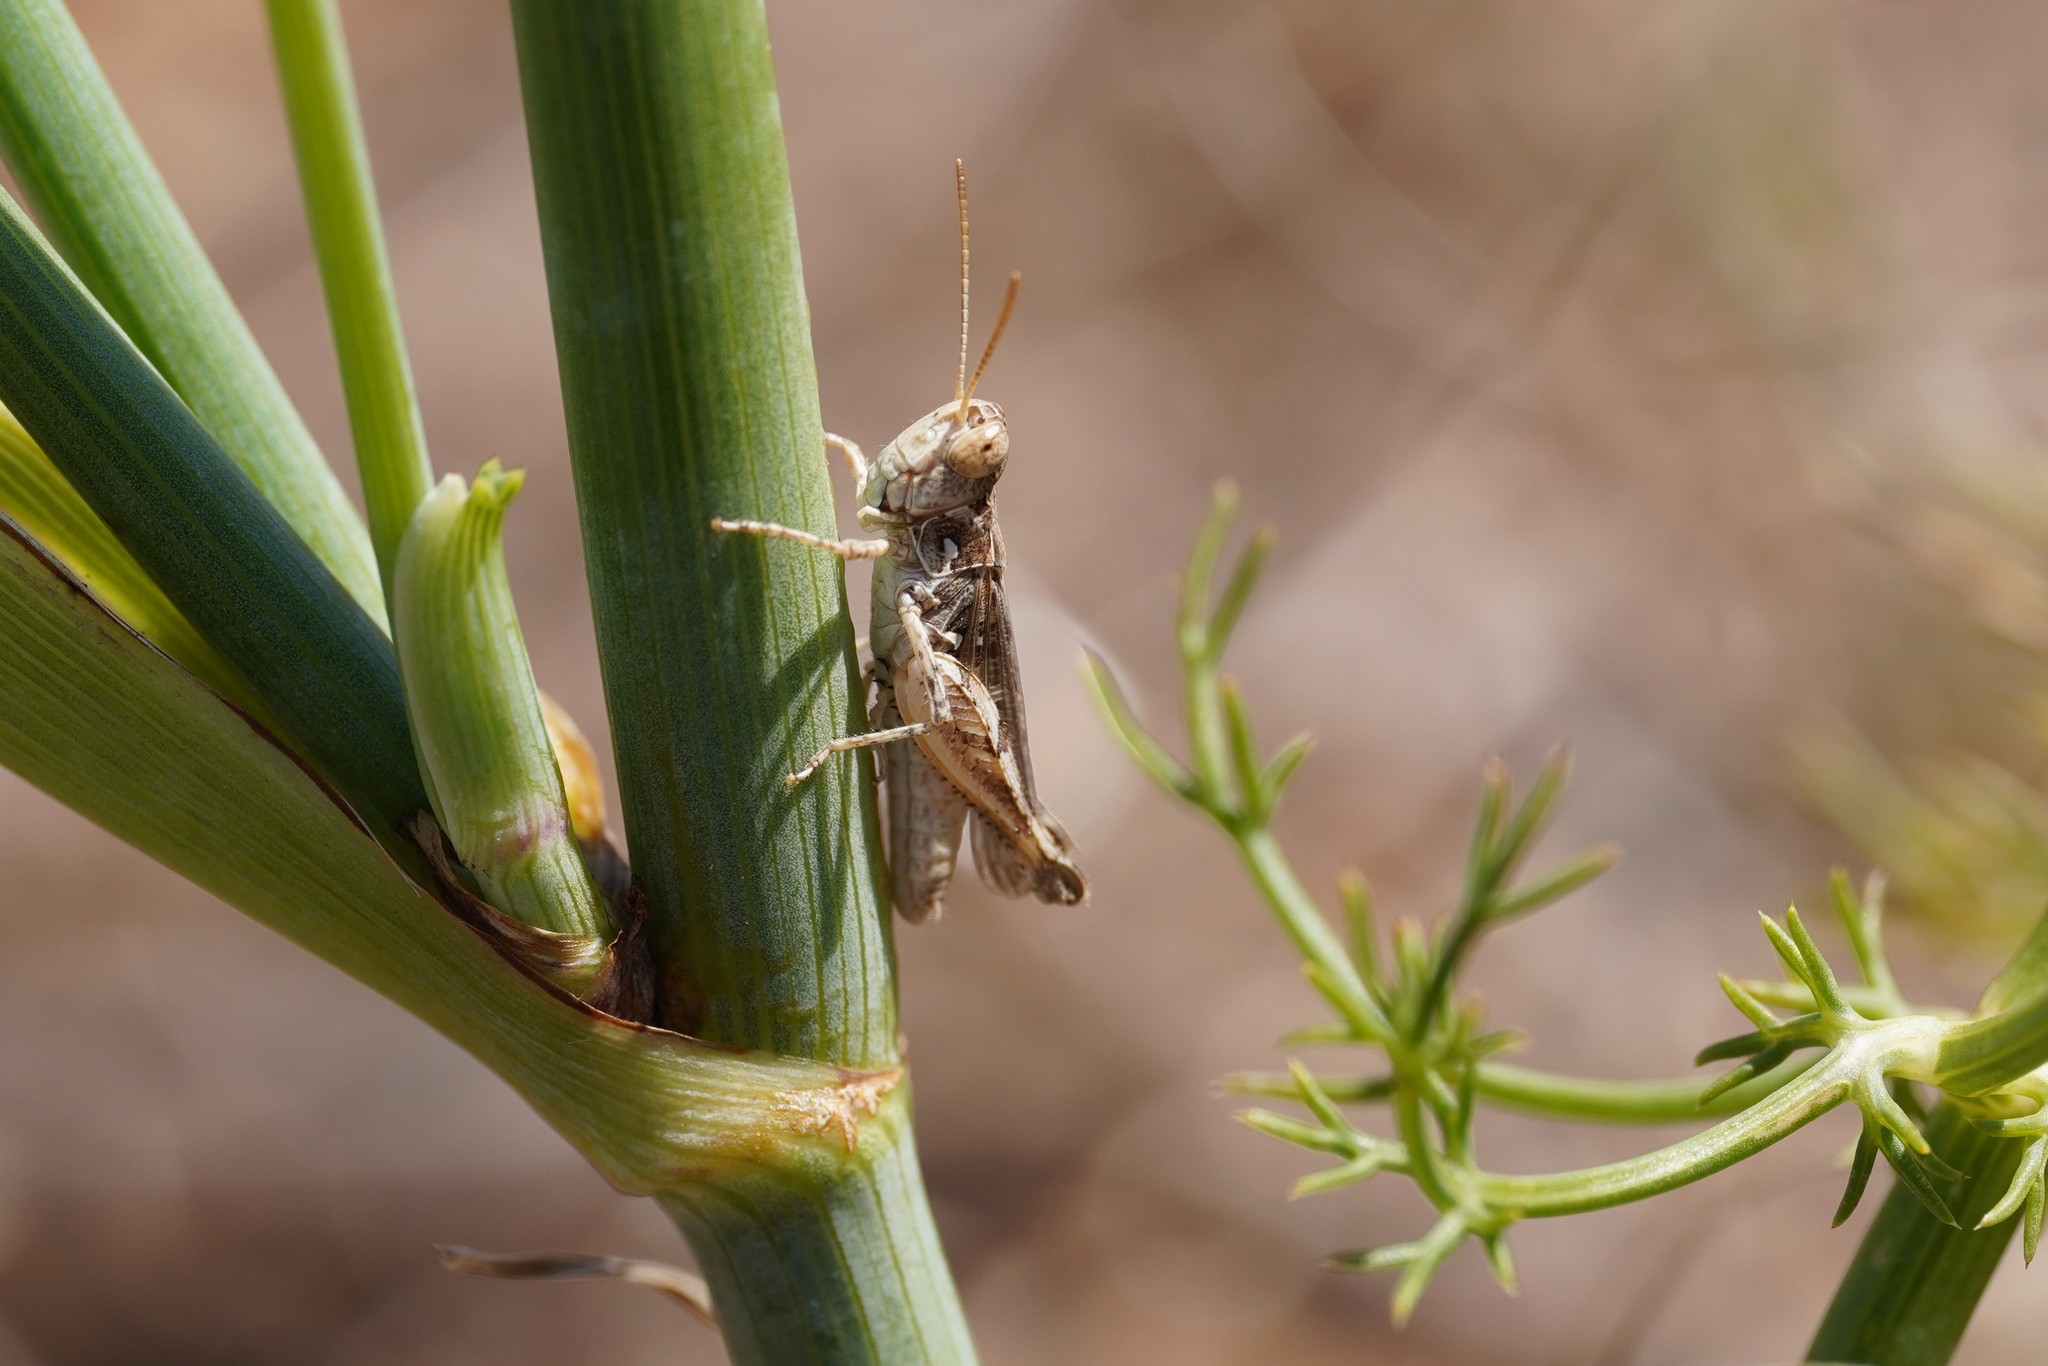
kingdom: Animalia
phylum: Arthropoda
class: Insecta
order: Orthoptera
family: Acrididae
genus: Dociostaurus
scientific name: Dociostaurus jagoi
